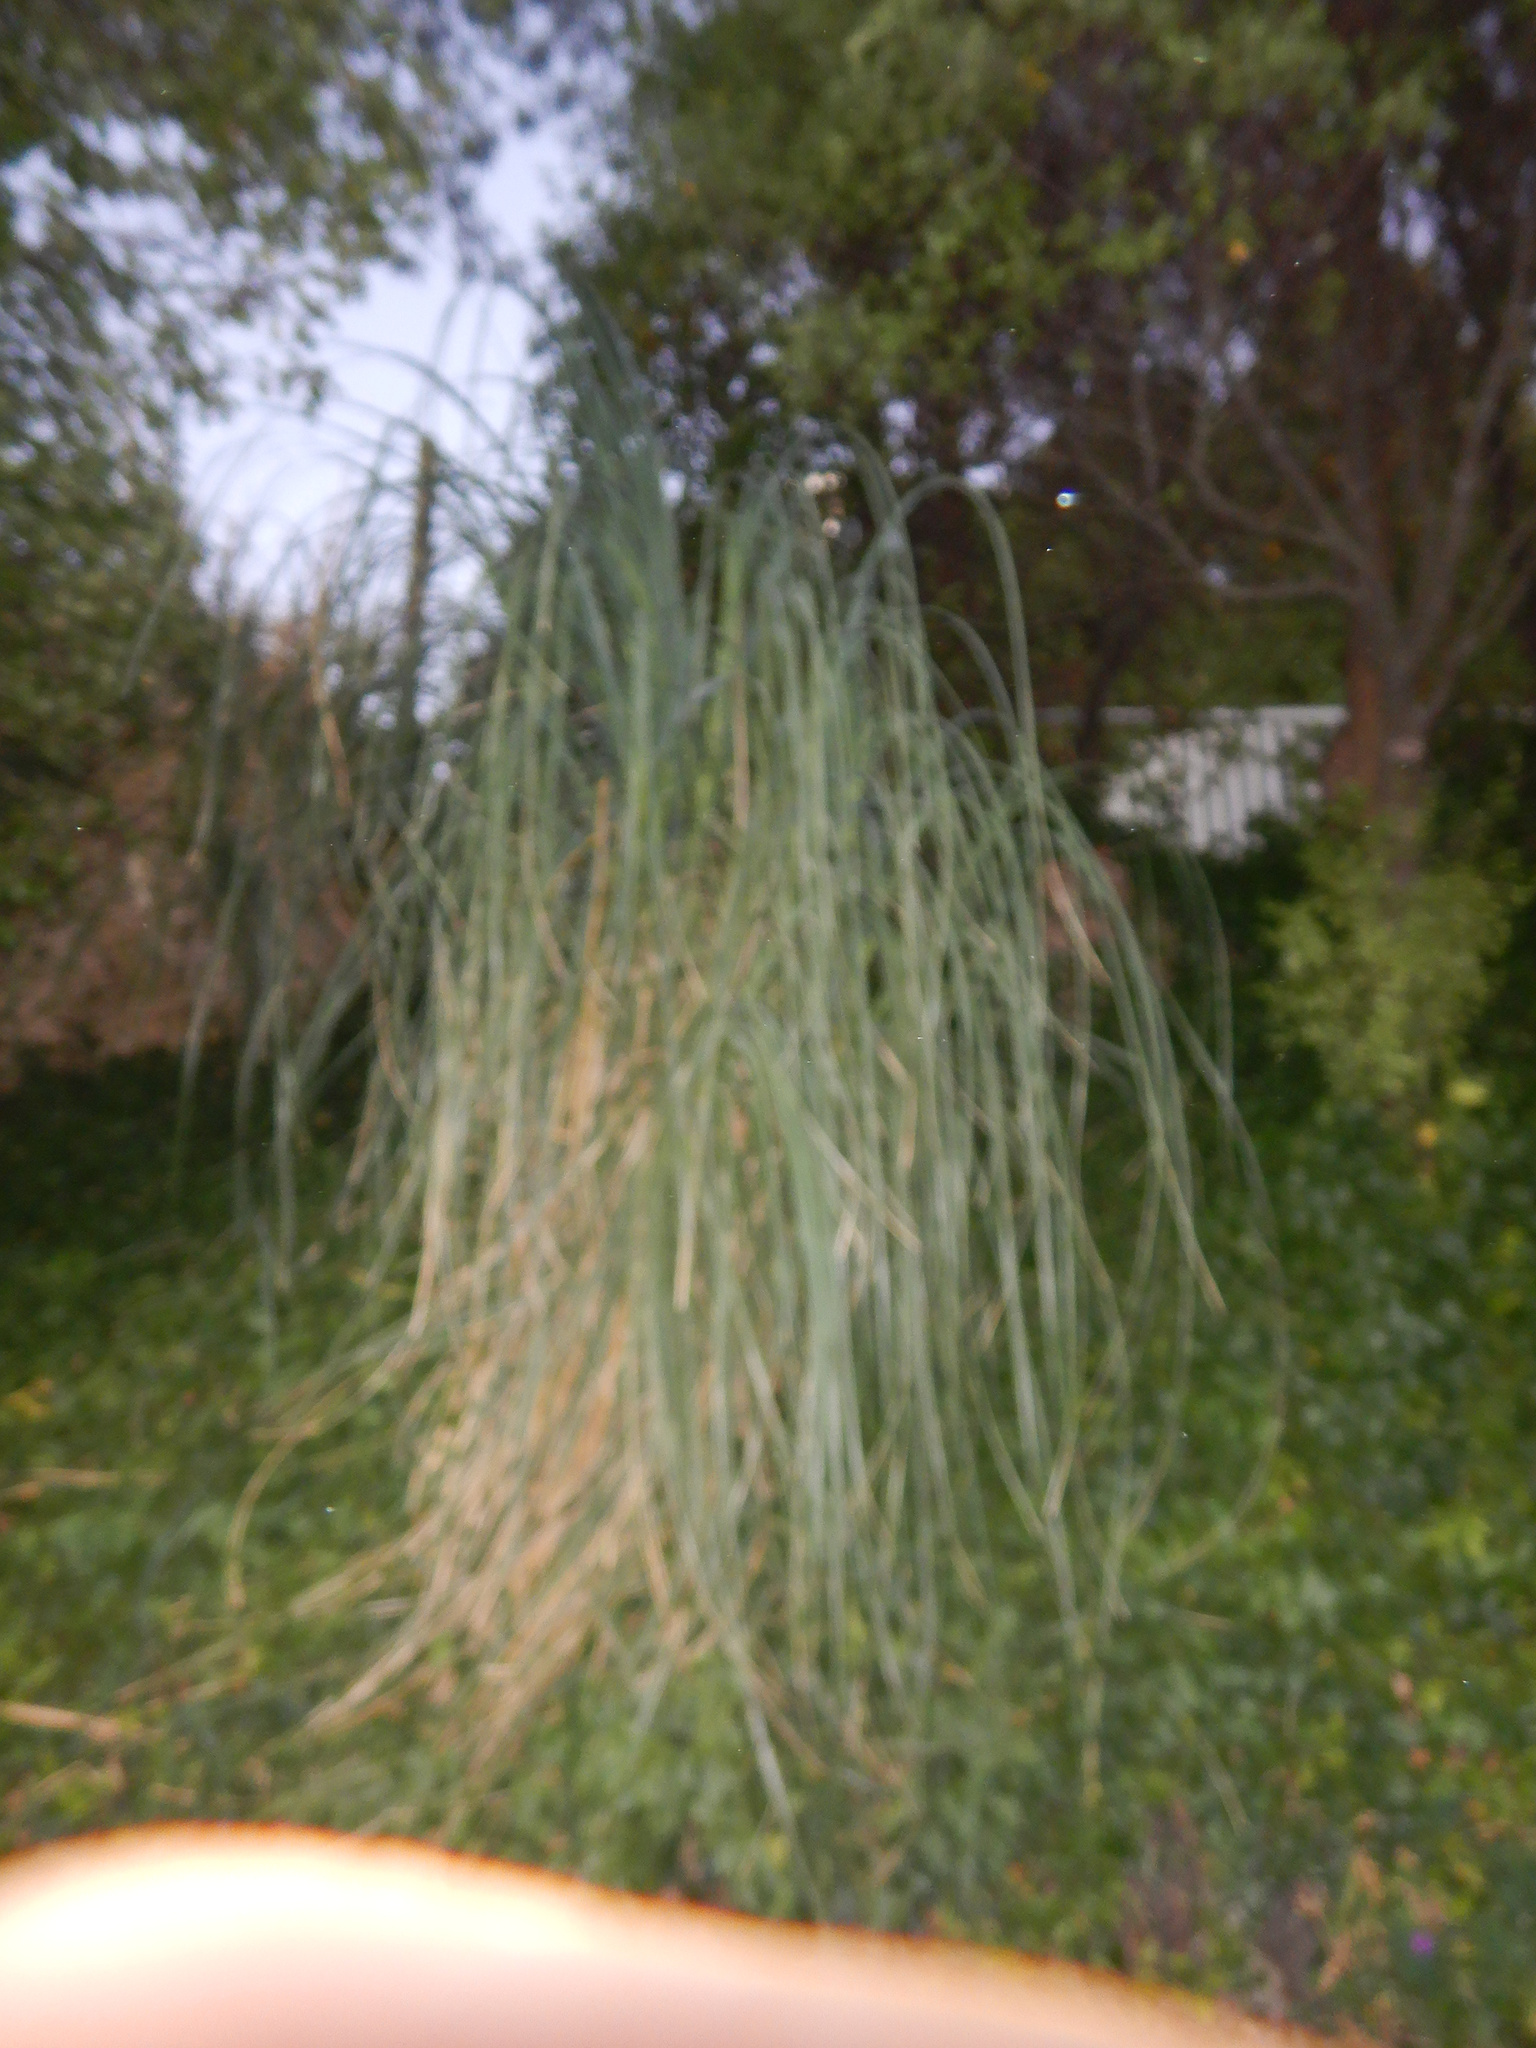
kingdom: Plantae
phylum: Tracheophyta
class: Liliopsida
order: Poales
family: Poaceae
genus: Cortaderia
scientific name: Cortaderia selloana
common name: Uruguayan pampas grass
